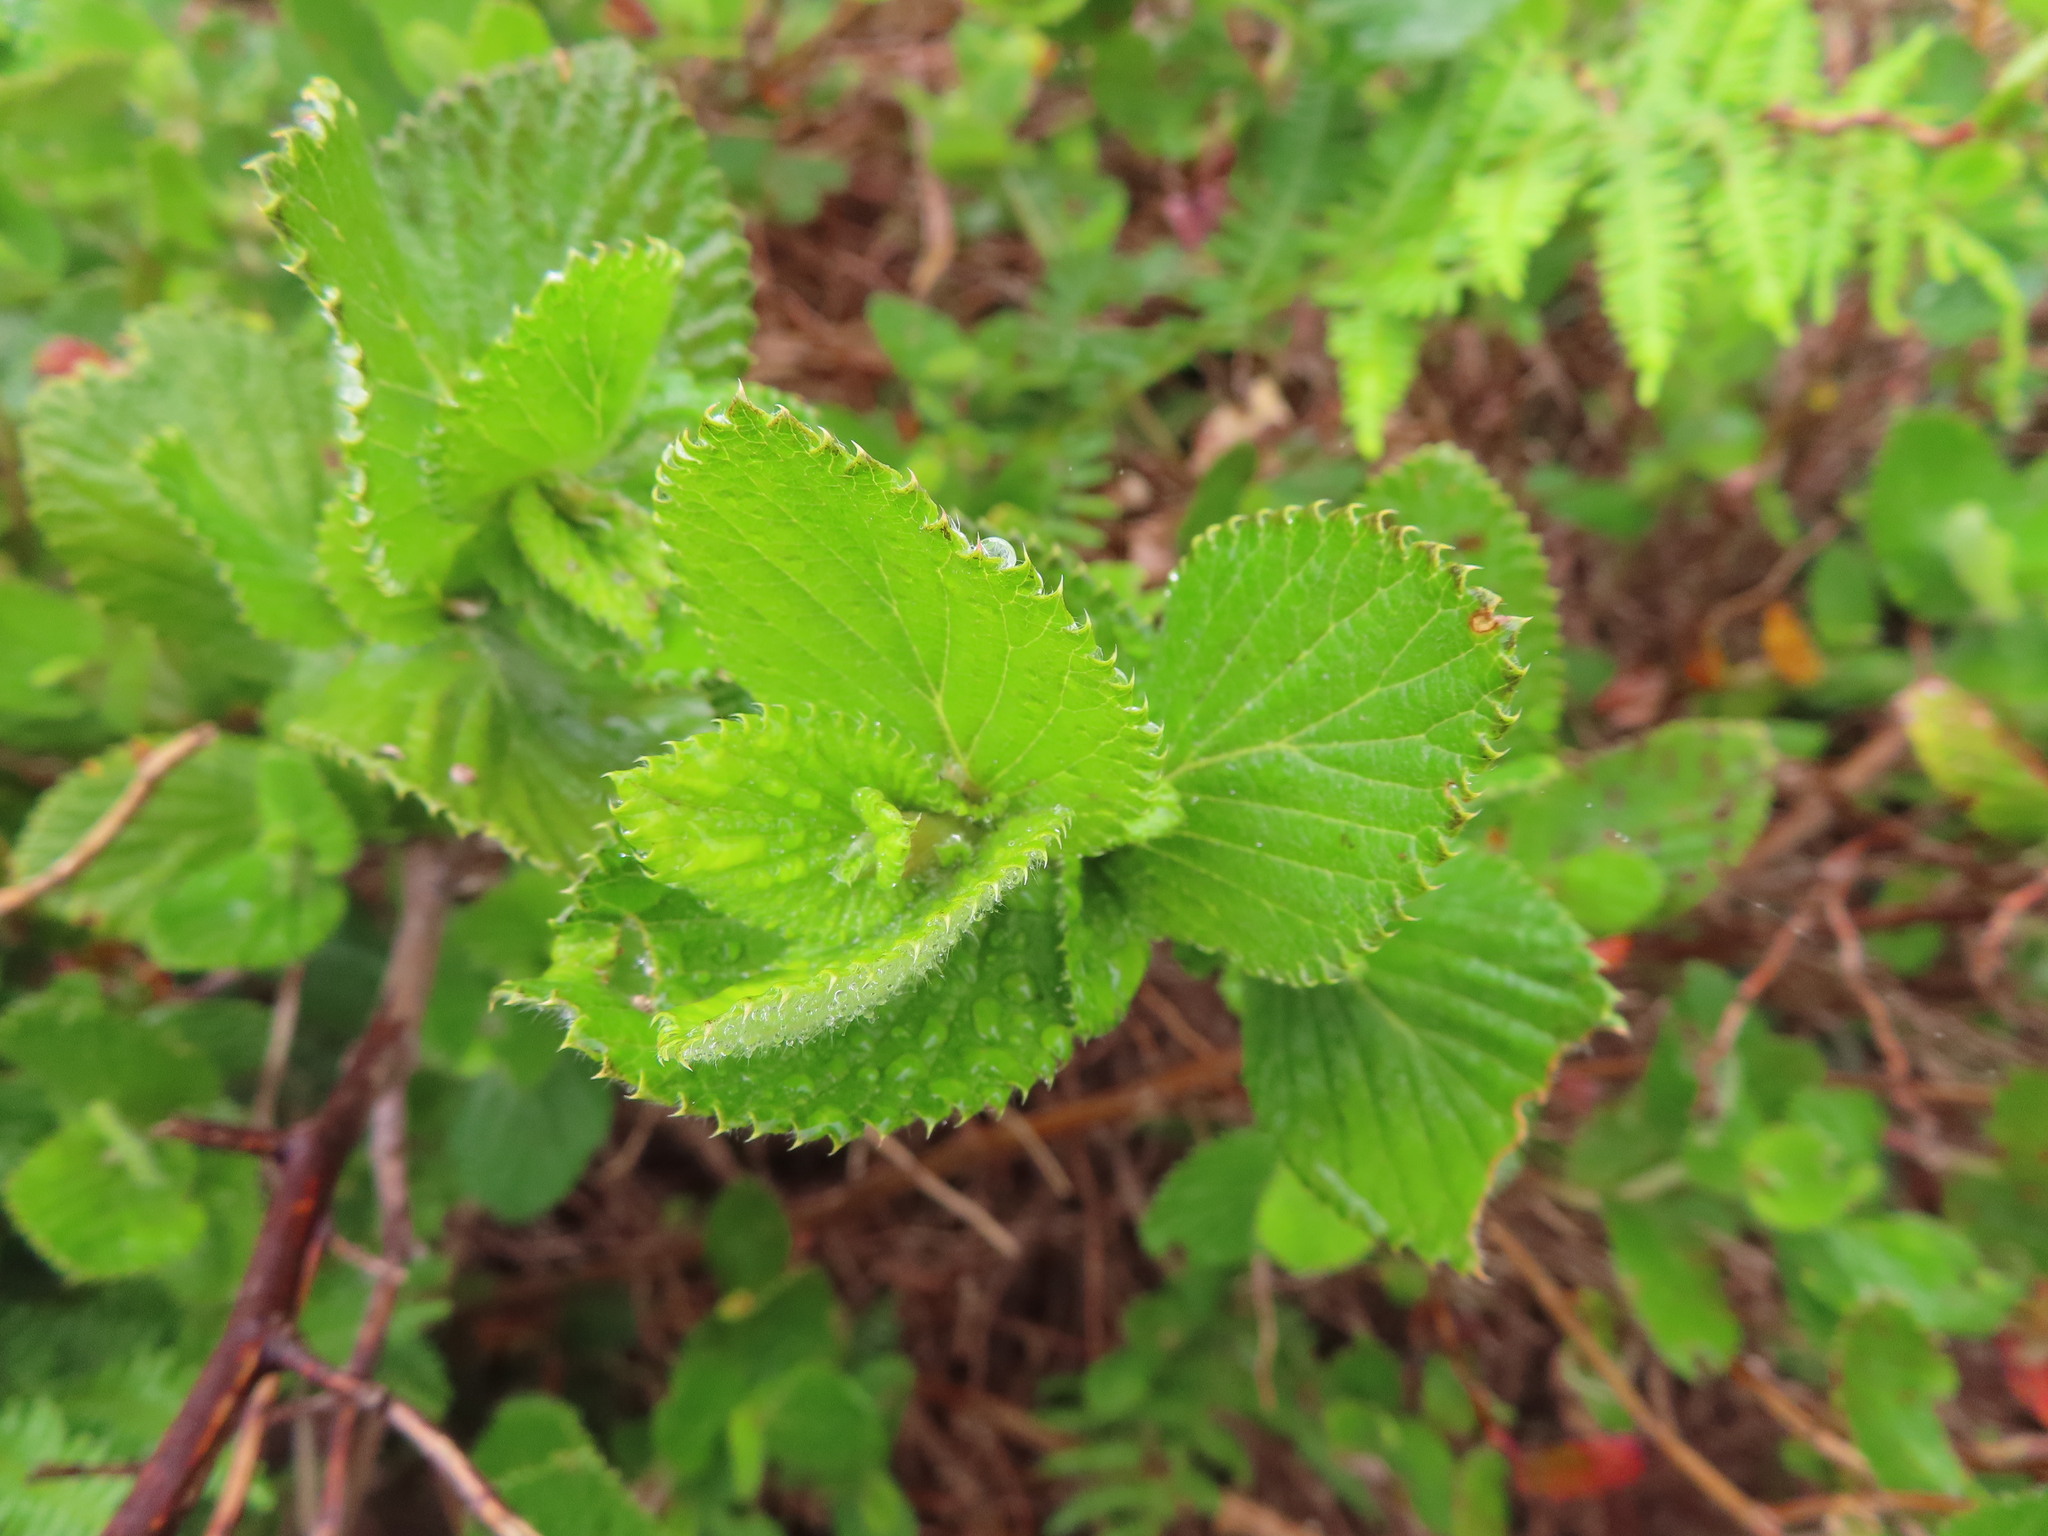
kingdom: Plantae
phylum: Tracheophyta
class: Magnoliopsida
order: Rosales
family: Rosaceae
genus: Cliffortia
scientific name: Cliffortia odorata
